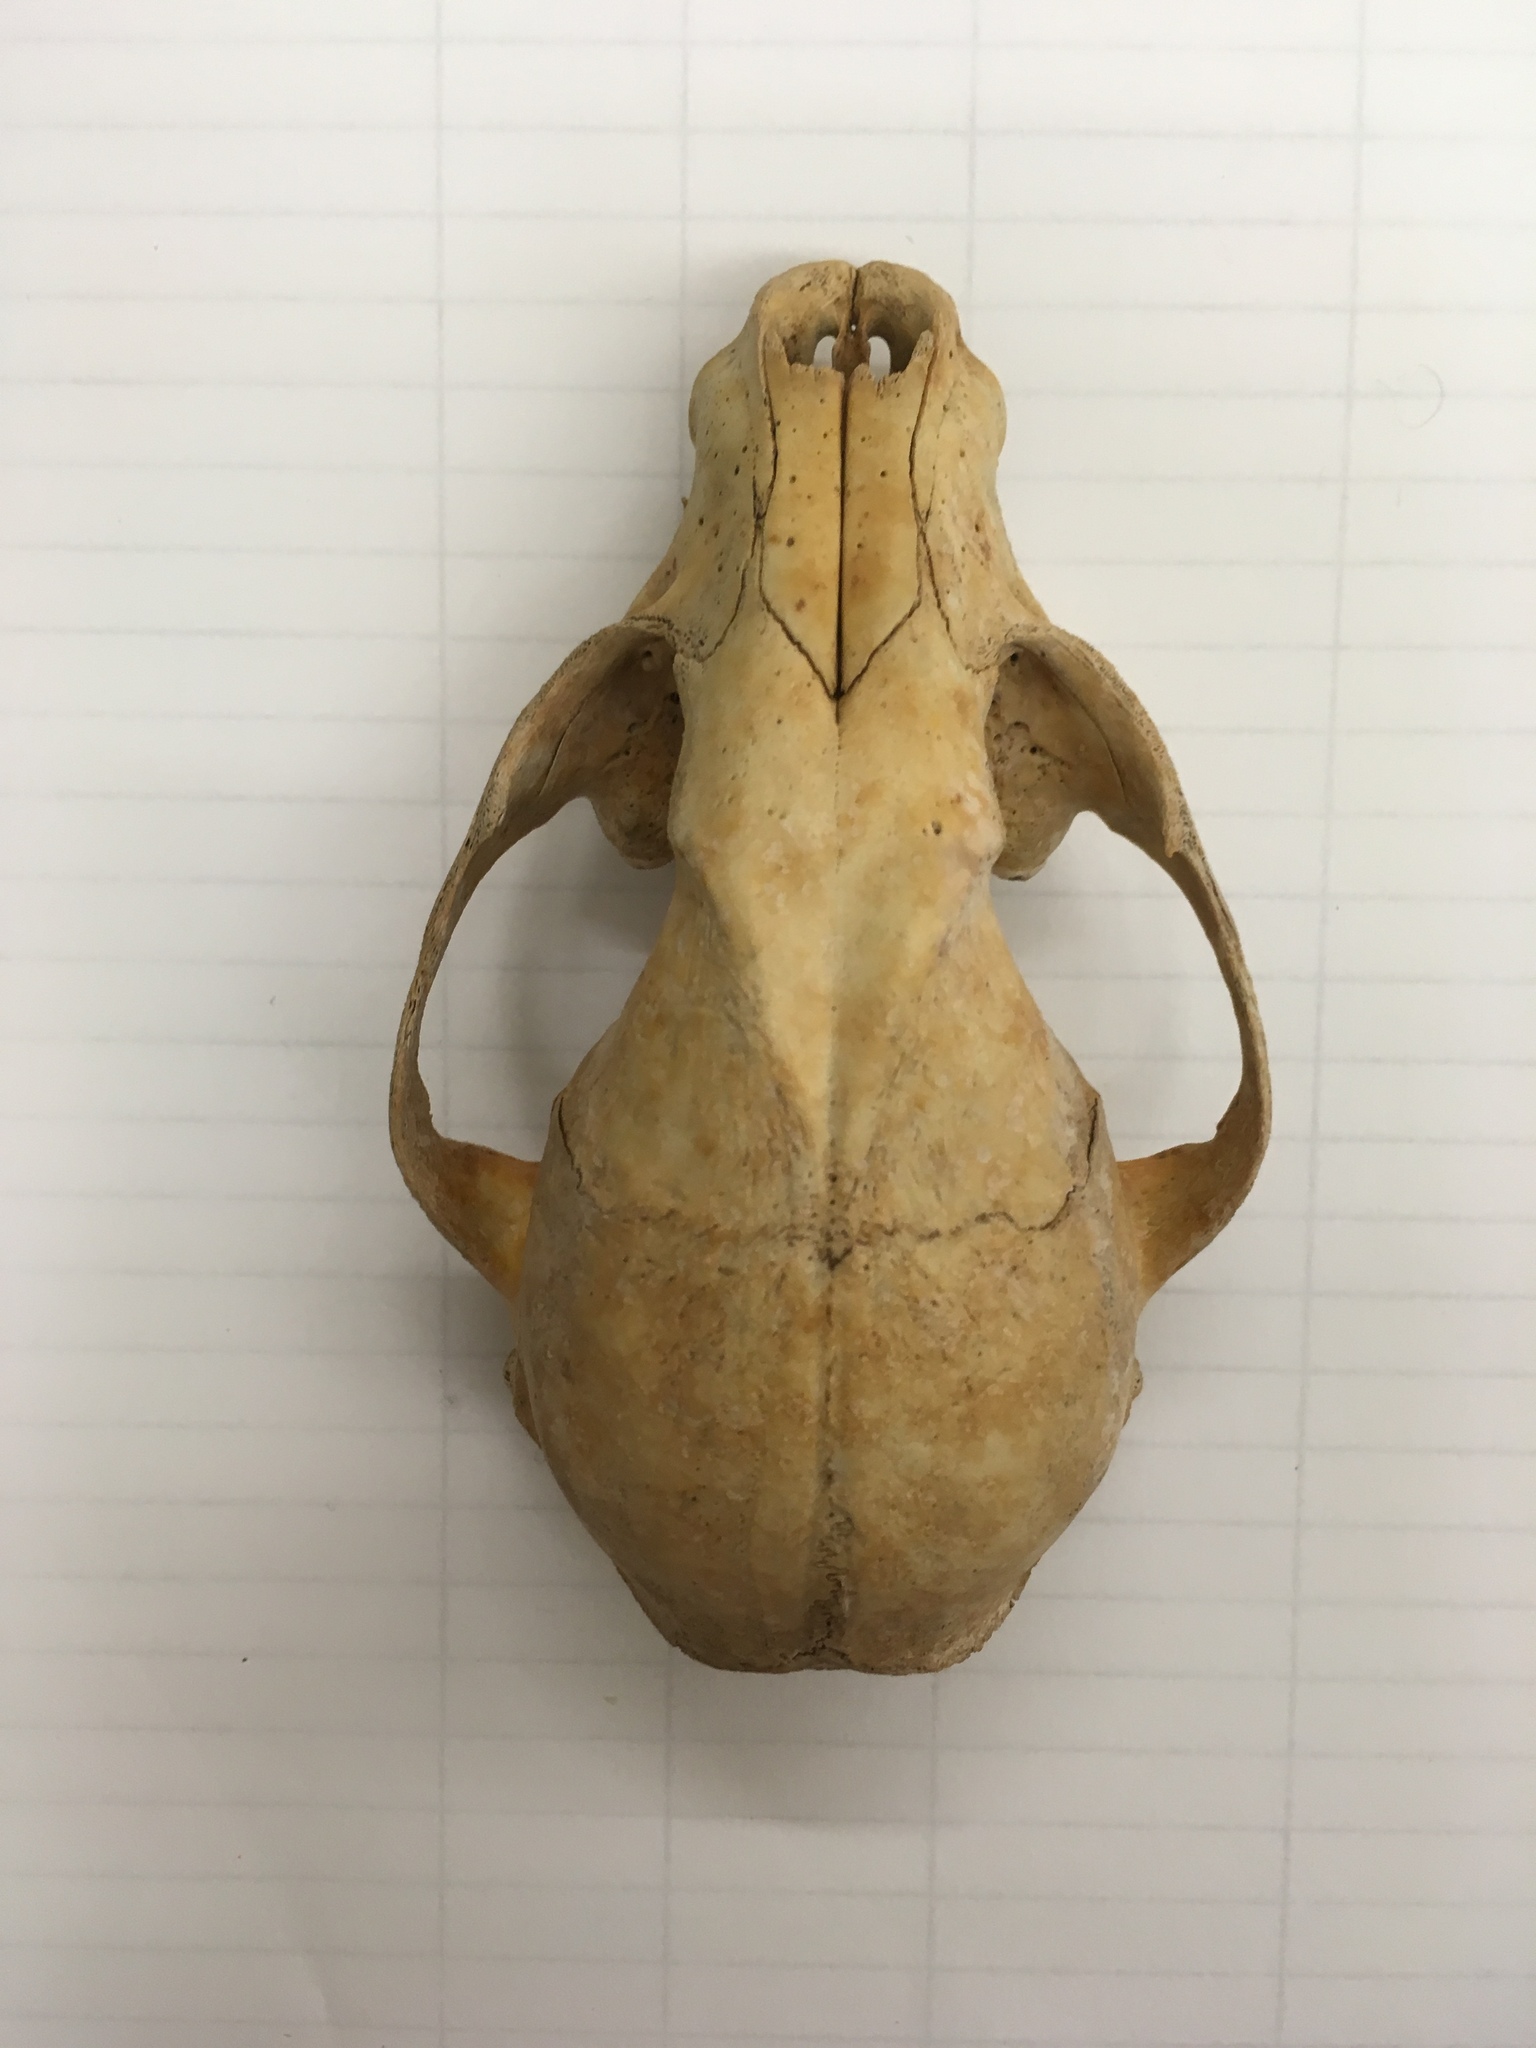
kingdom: Animalia
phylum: Chordata
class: Mammalia
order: Carnivora
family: Procyonidae
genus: Procyon
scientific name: Procyon lotor
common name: Raccoon
